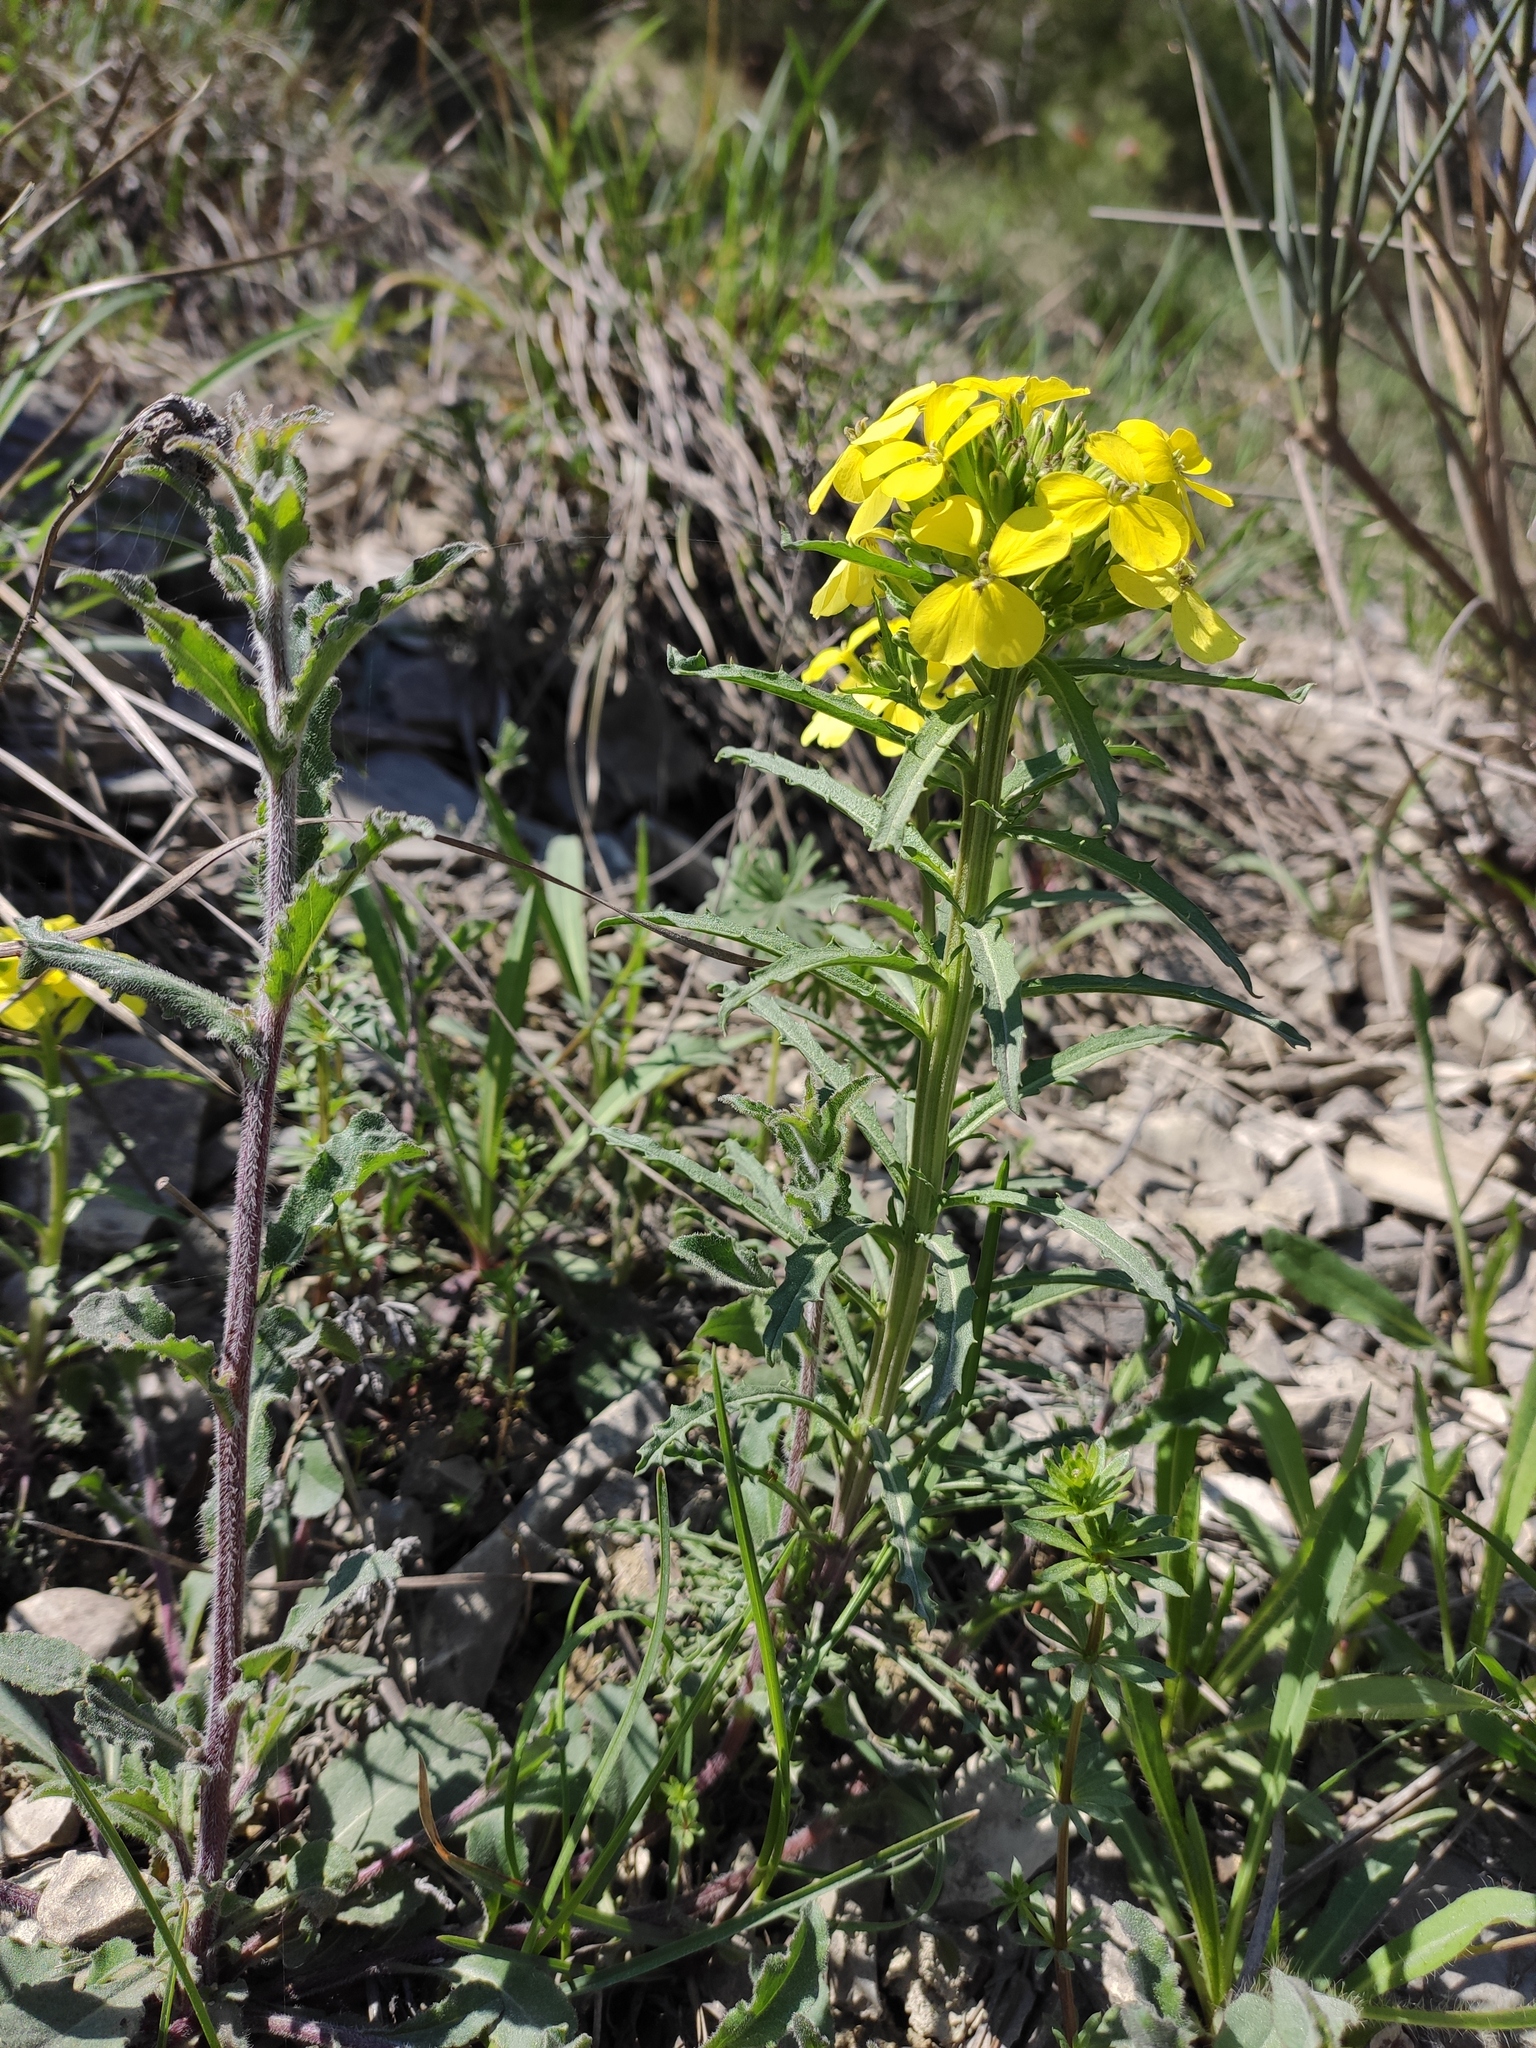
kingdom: Plantae
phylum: Tracheophyta
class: Magnoliopsida
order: Brassicales
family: Brassicaceae
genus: Erysimum
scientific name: Erysimum callicarpum
